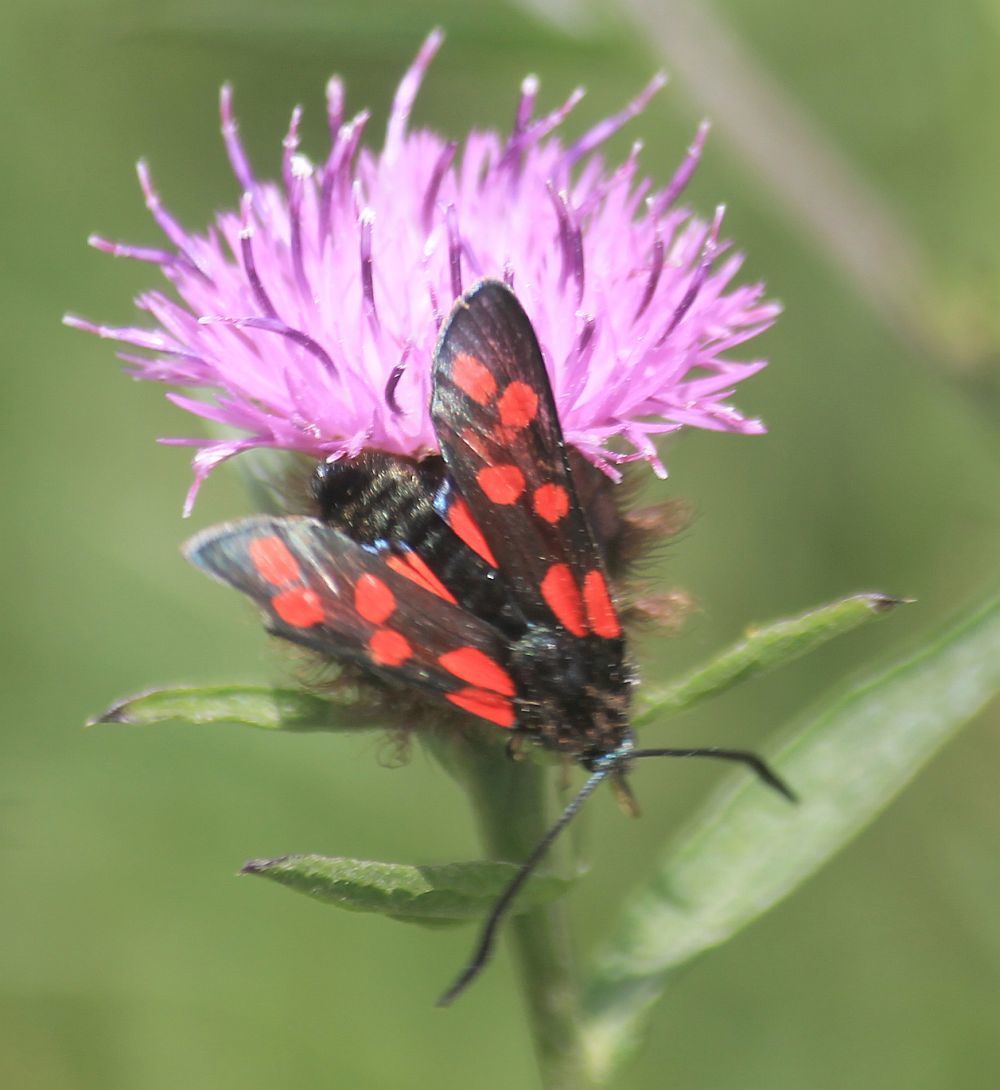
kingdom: Animalia
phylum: Arthropoda
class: Insecta
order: Lepidoptera
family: Zygaenidae
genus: Zygaena
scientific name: Zygaena filipendulae
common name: Six-spot burnet
